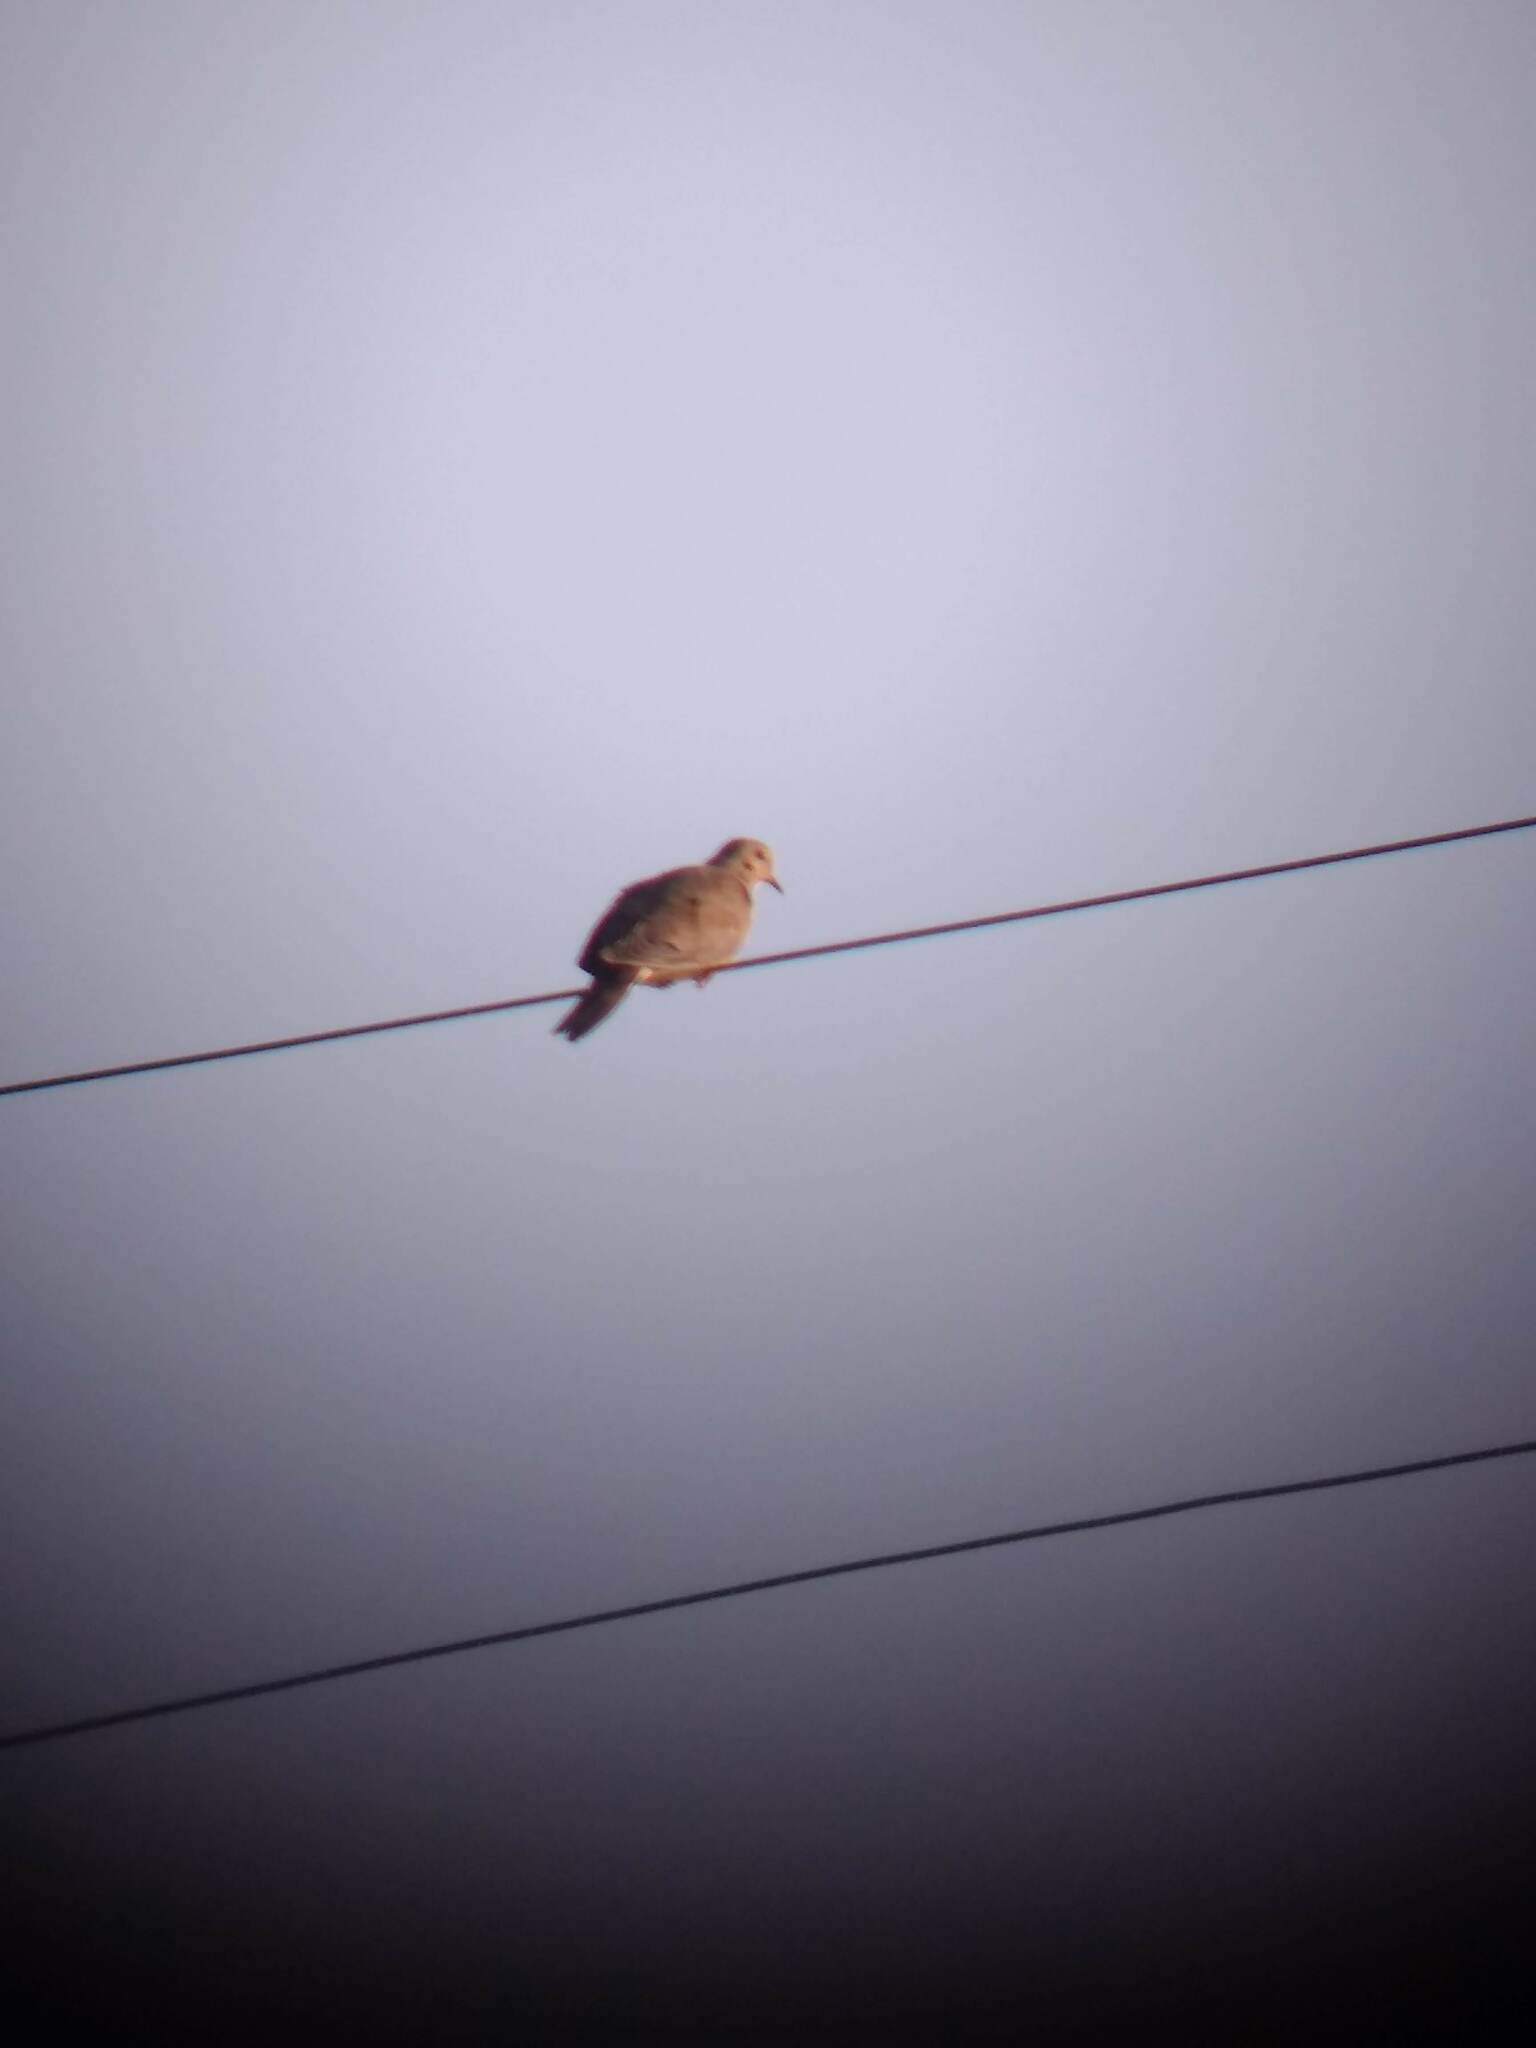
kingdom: Animalia
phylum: Chordata
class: Aves
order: Columbiformes
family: Columbidae
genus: Zenaida
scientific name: Zenaida macroura
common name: Mourning dove
